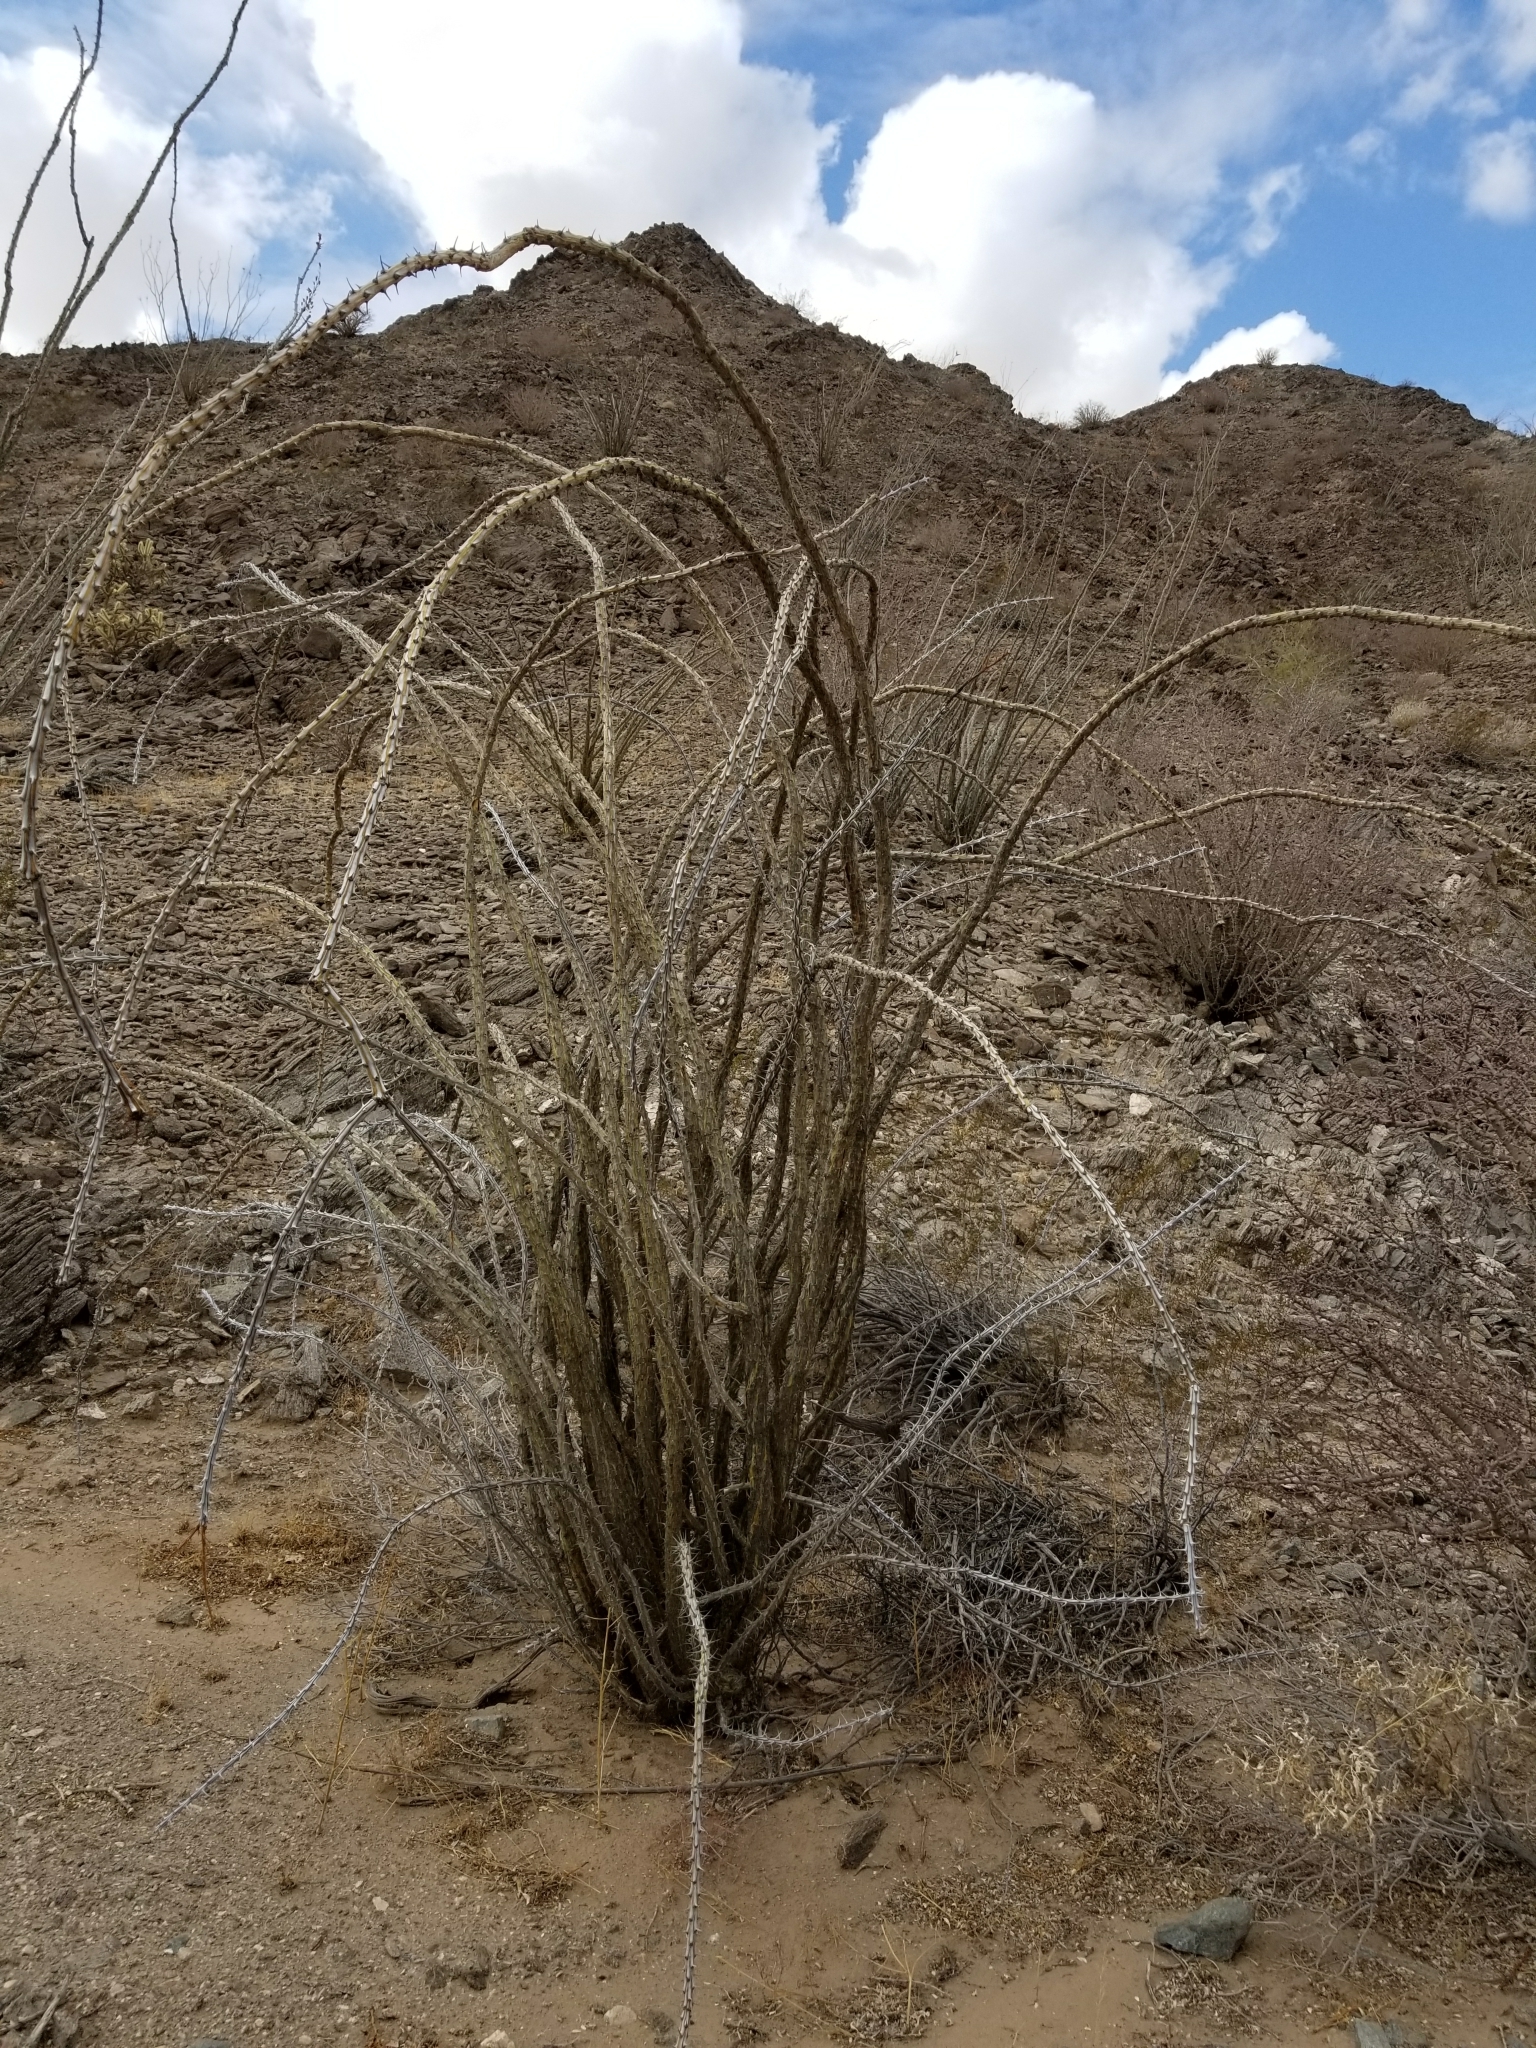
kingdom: Plantae
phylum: Tracheophyta
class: Magnoliopsida
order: Ericales
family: Fouquieriaceae
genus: Fouquieria
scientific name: Fouquieria splendens
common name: Vine-cactus
